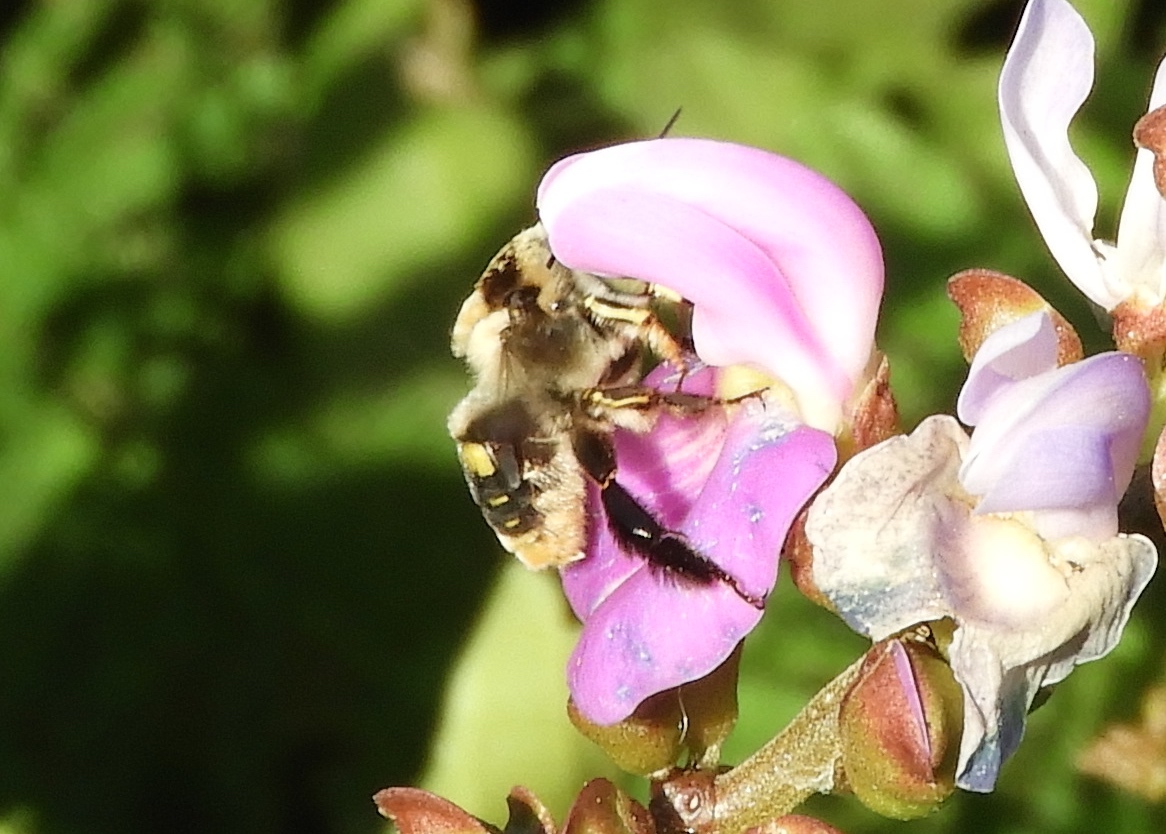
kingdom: Animalia
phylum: Arthropoda
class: Insecta
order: Hymenoptera
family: Apidae
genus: Centris
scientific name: Centris flavofasciata
